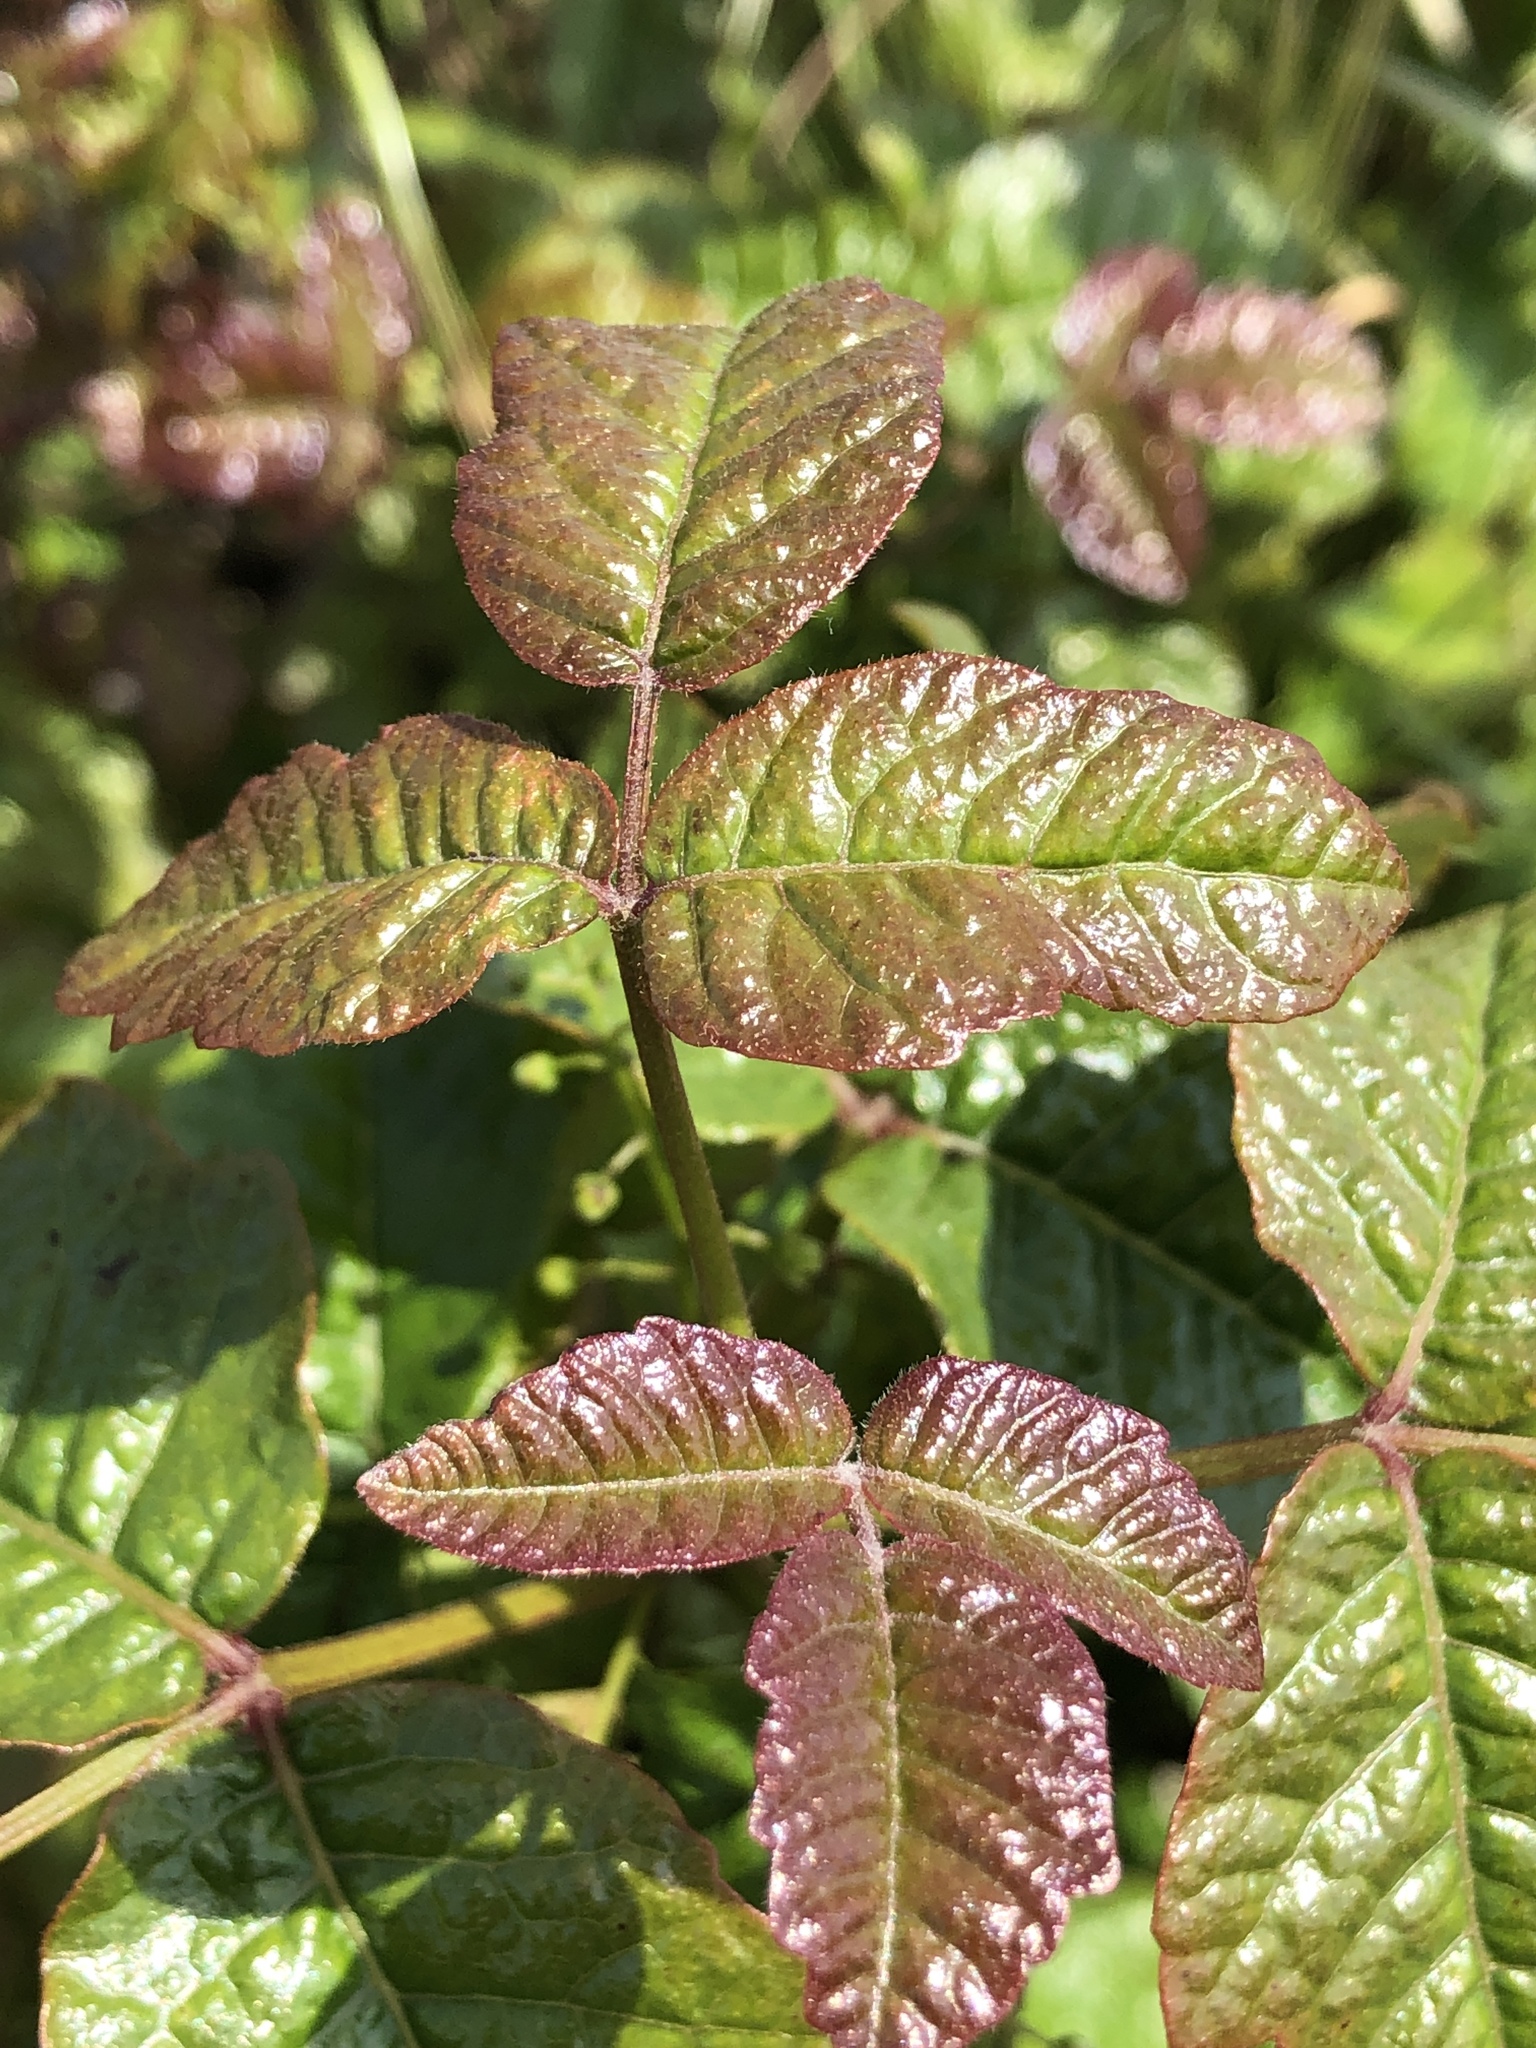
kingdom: Plantae
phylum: Tracheophyta
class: Magnoliopsida
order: Sapindales
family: Anacardiaceae
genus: Toxicodendron
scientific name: Toxicodendron diversilobum
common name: Pacific poison-oak
